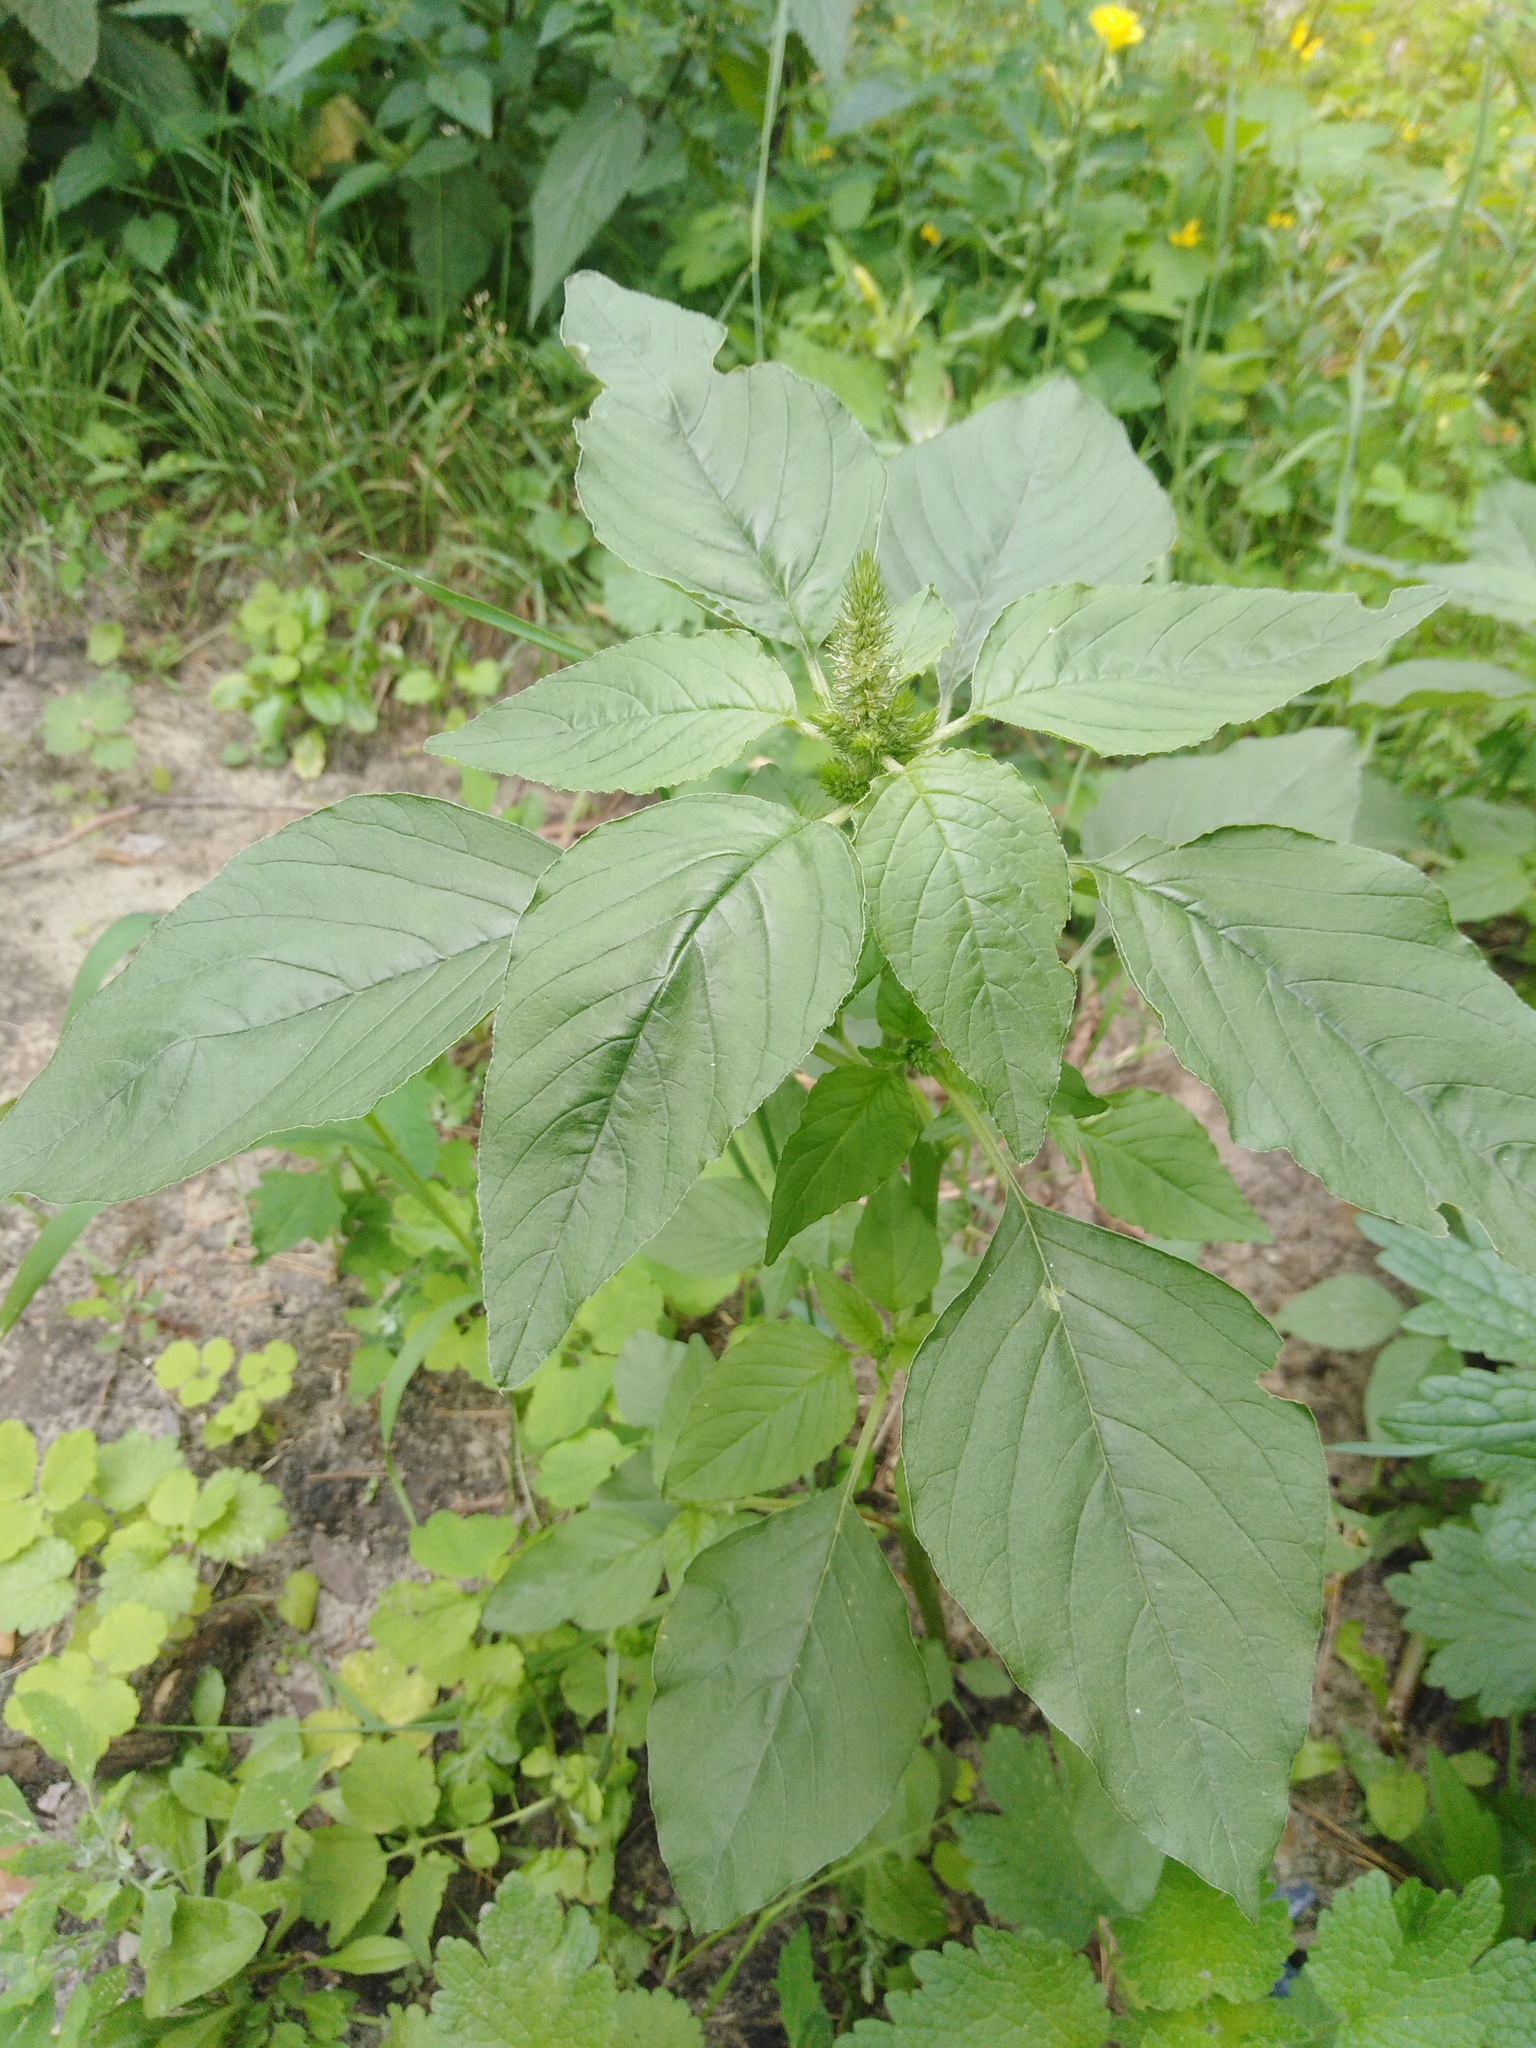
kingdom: Plantae
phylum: Tracheophyta
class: Magnoliopsida
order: Caryophyllales
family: Amaranthaceae
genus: Amaranthus
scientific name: Amaranthus retroflexus
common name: Redroot amaranth
